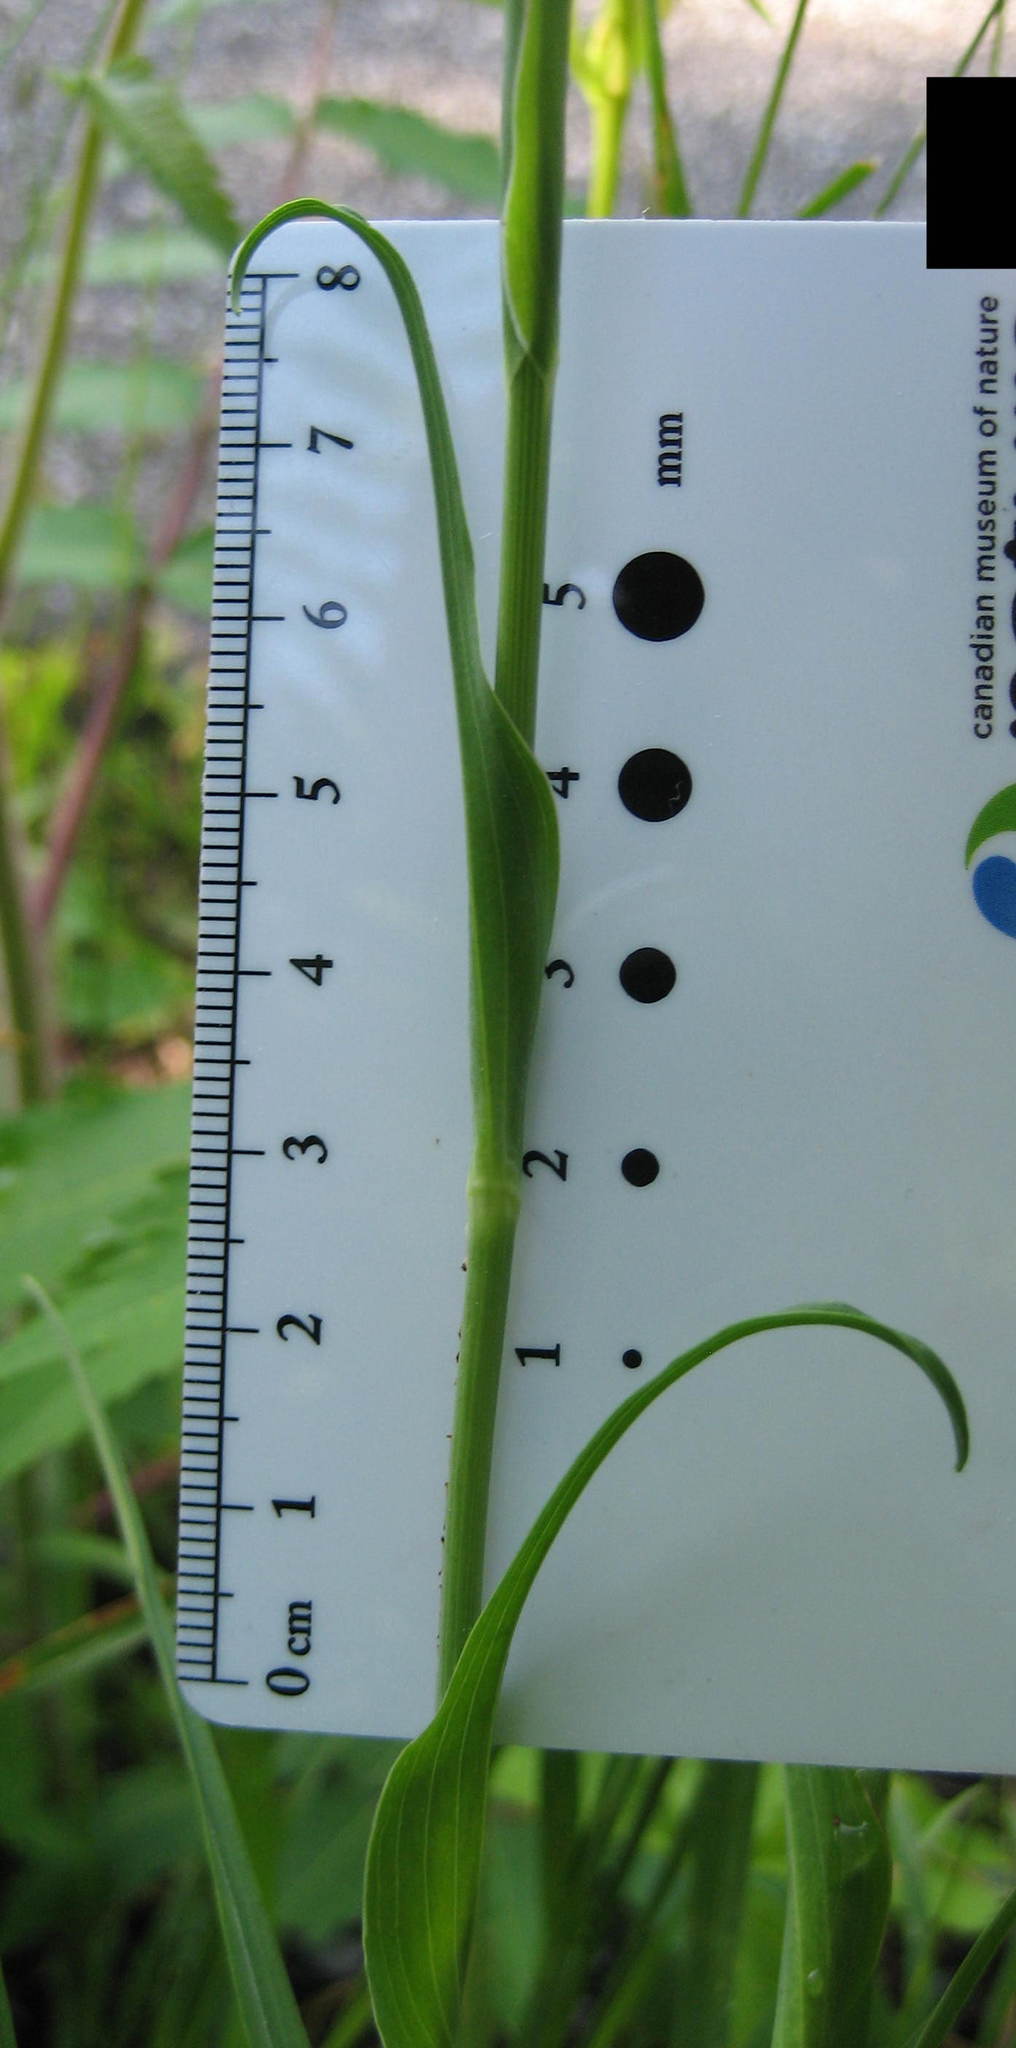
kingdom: Plantae
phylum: Tracheophyta
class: Magnoliopsida
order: Asterales
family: Asteraceae
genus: Tragopogon
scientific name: Tragopogon pratensis
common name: Goat's-beard
